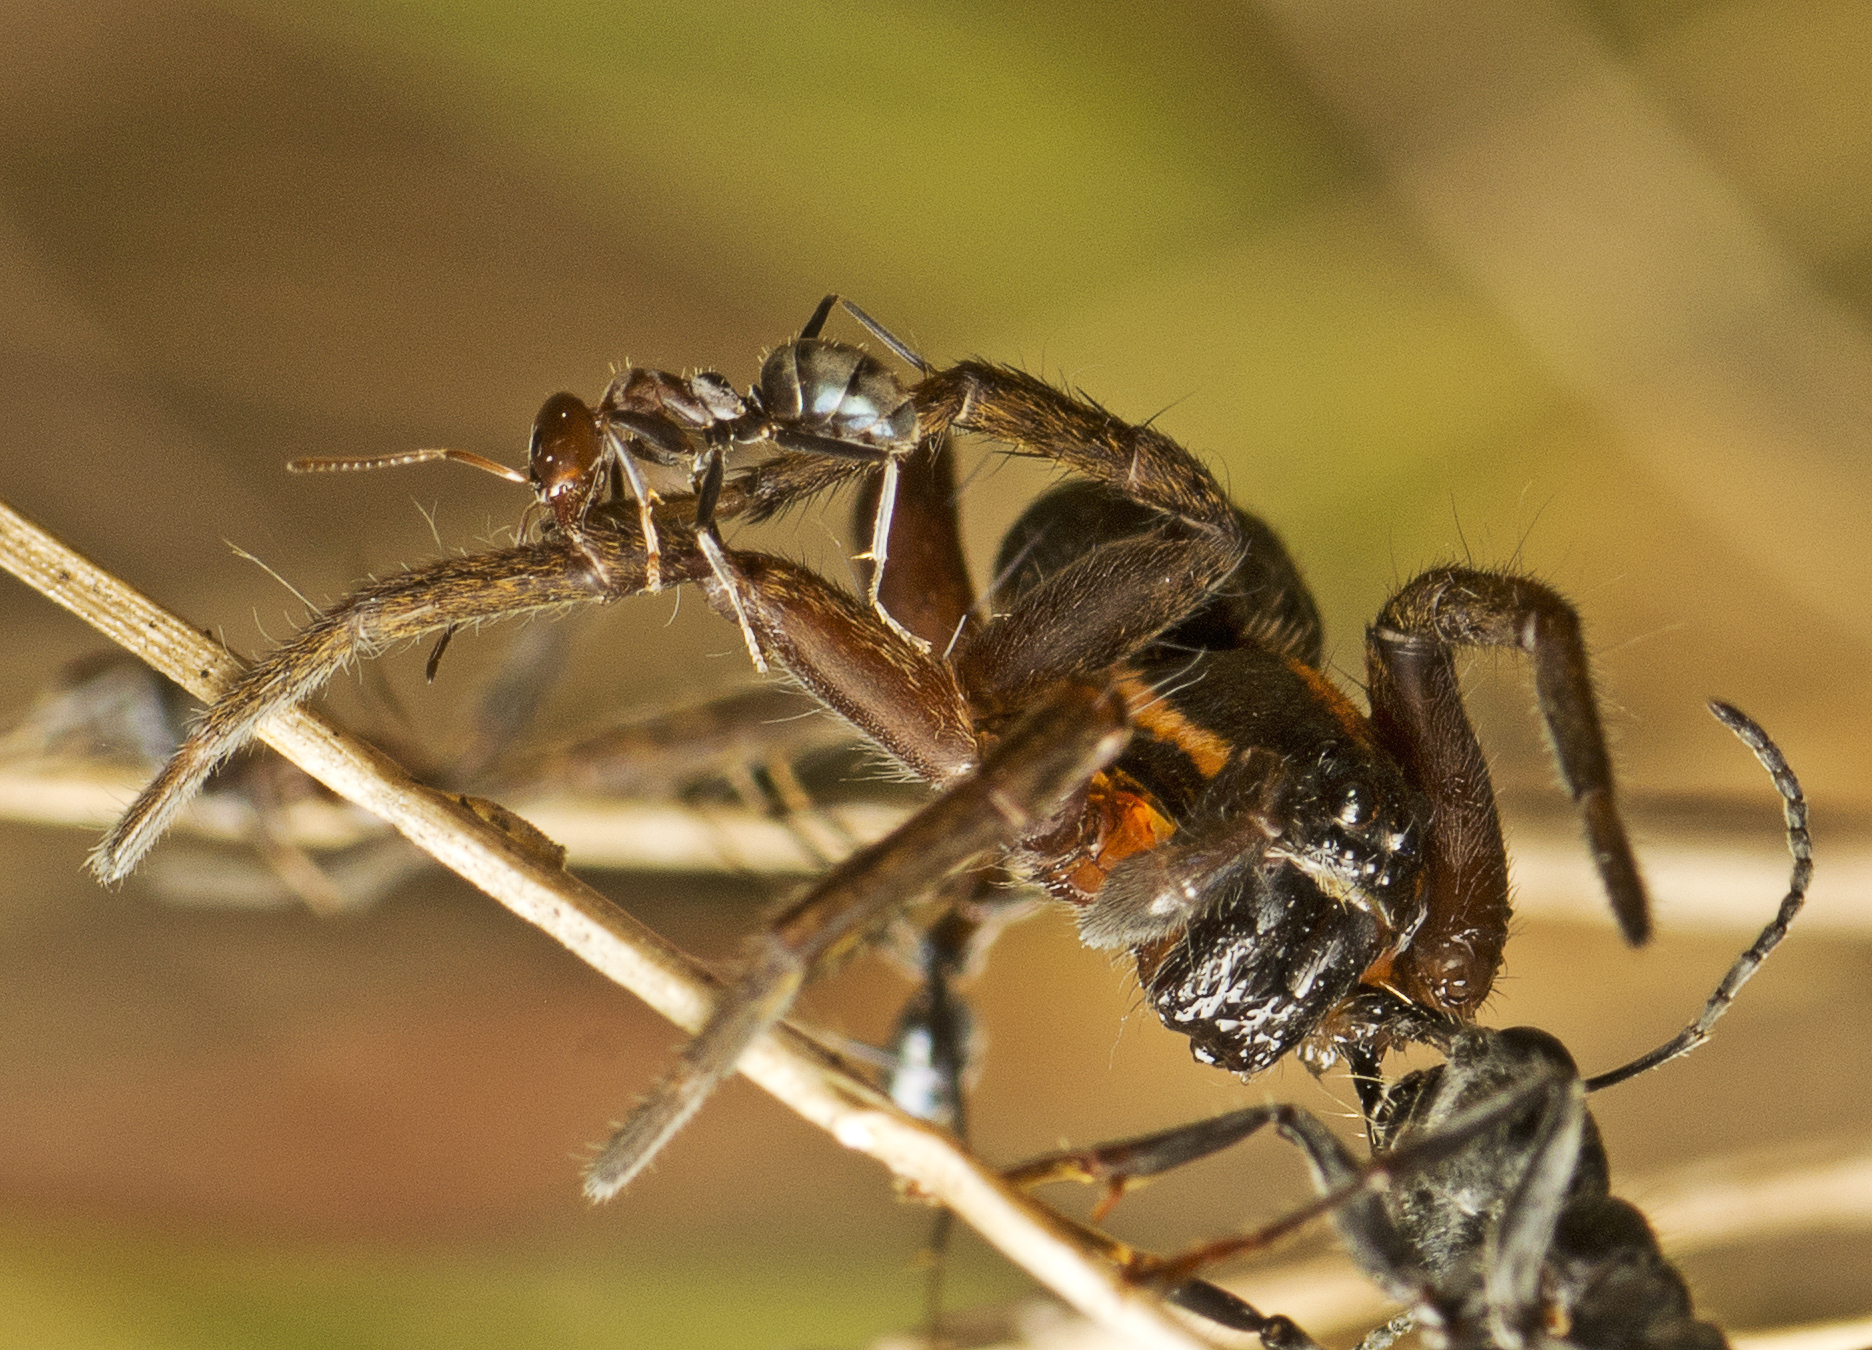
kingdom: Animalia
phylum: Arthropoda
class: Arachnida
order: Araneae
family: Lycosidae
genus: Venatrix
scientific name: Venatrix furcillata
